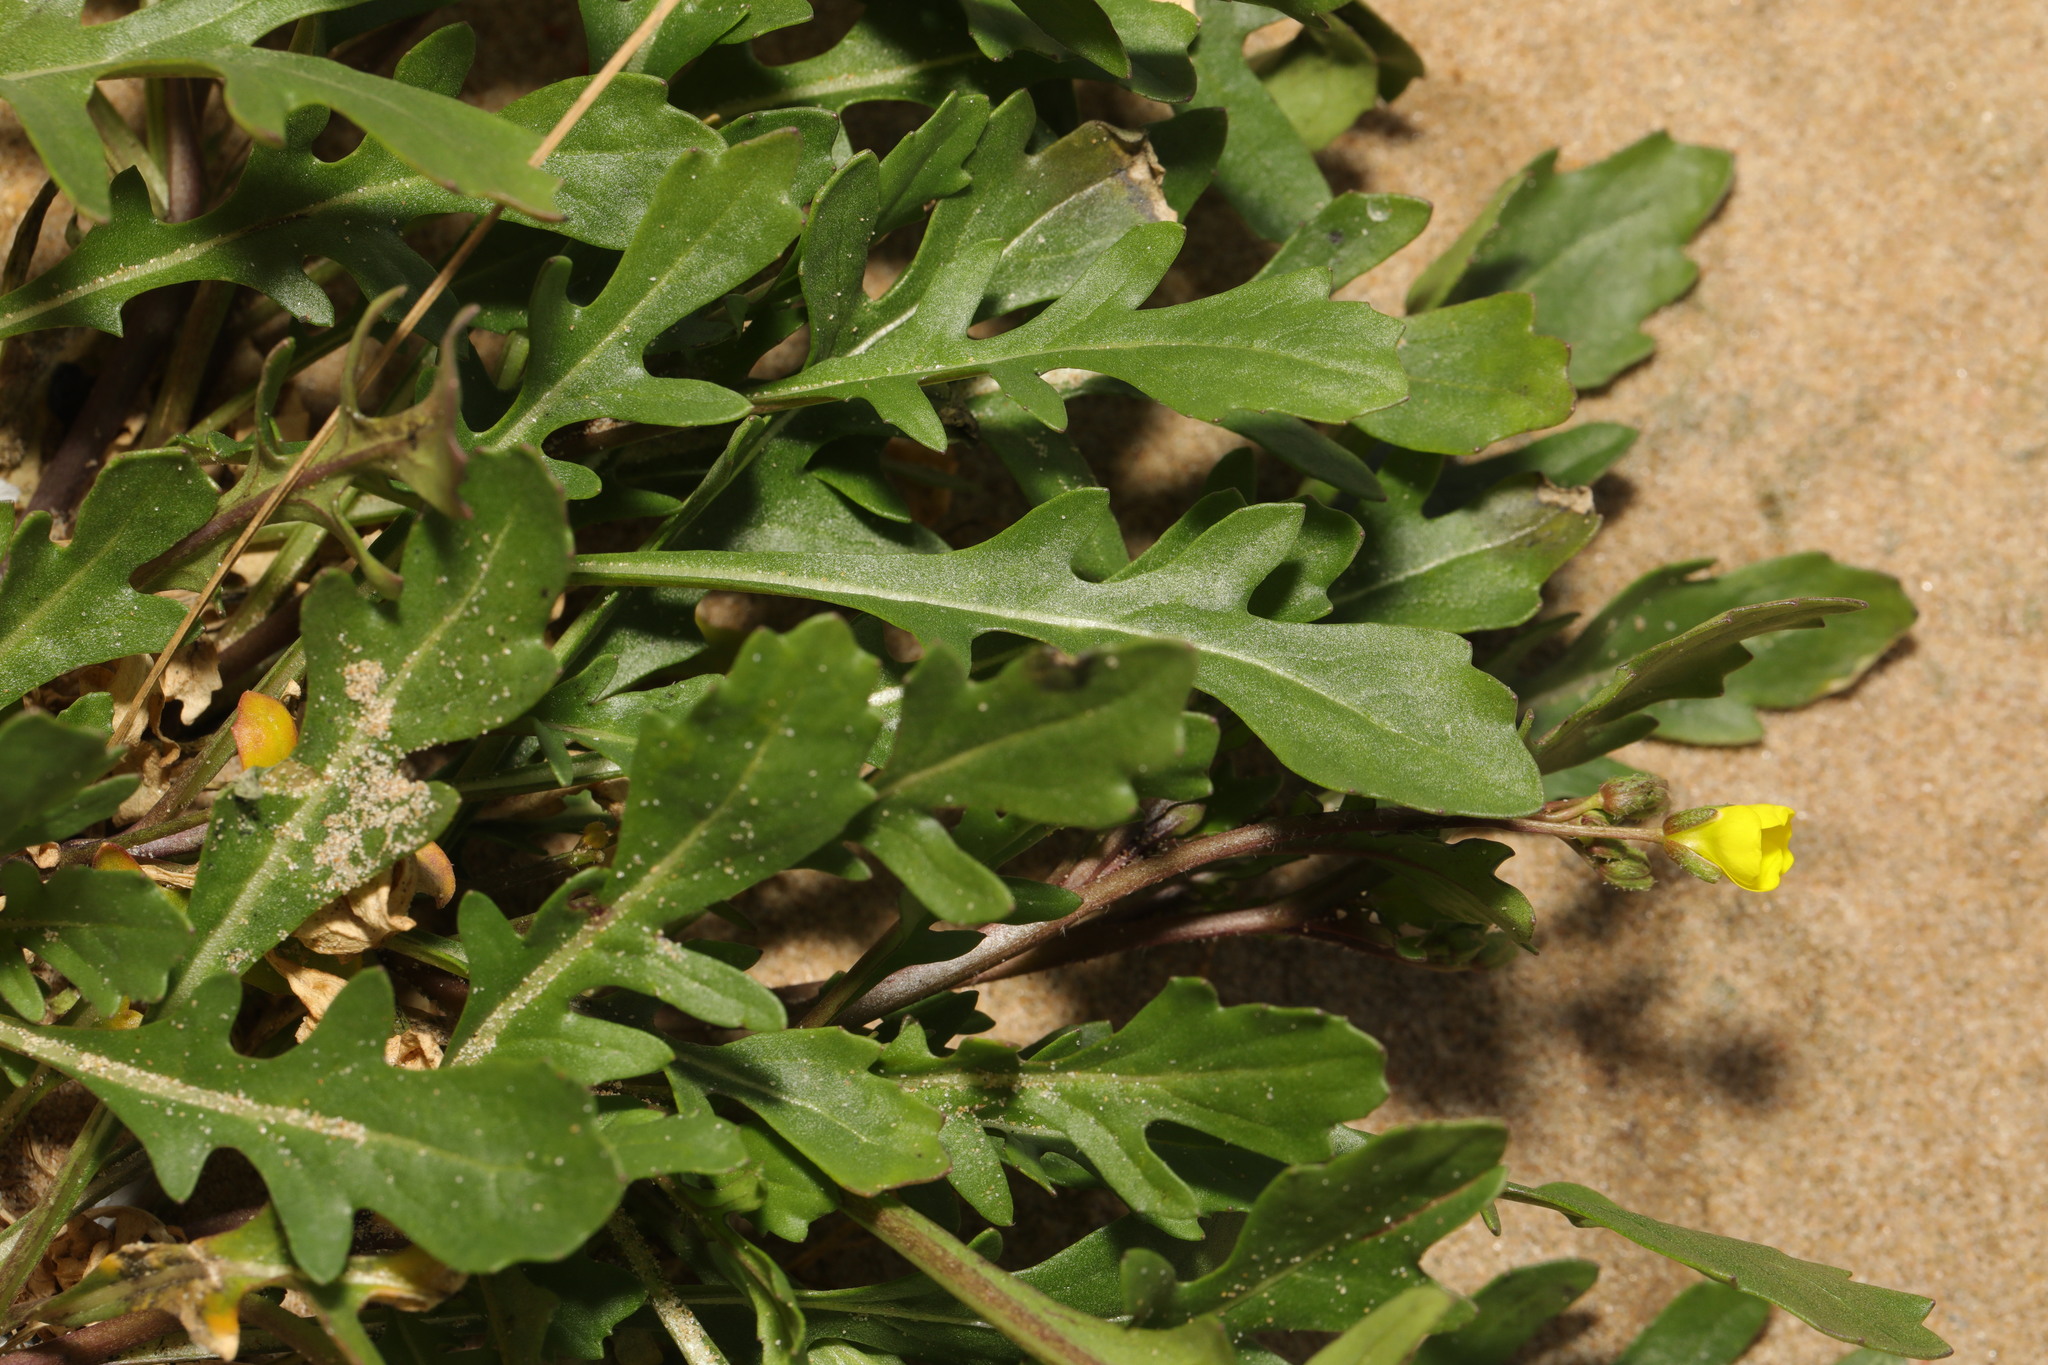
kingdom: Plantae
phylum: Tracheophyta
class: Magnoliopsida
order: Brassicales
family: Brassicaceae
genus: Diplotaxis
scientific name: Diplotaxis muralis
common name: Annual wall-rocket
